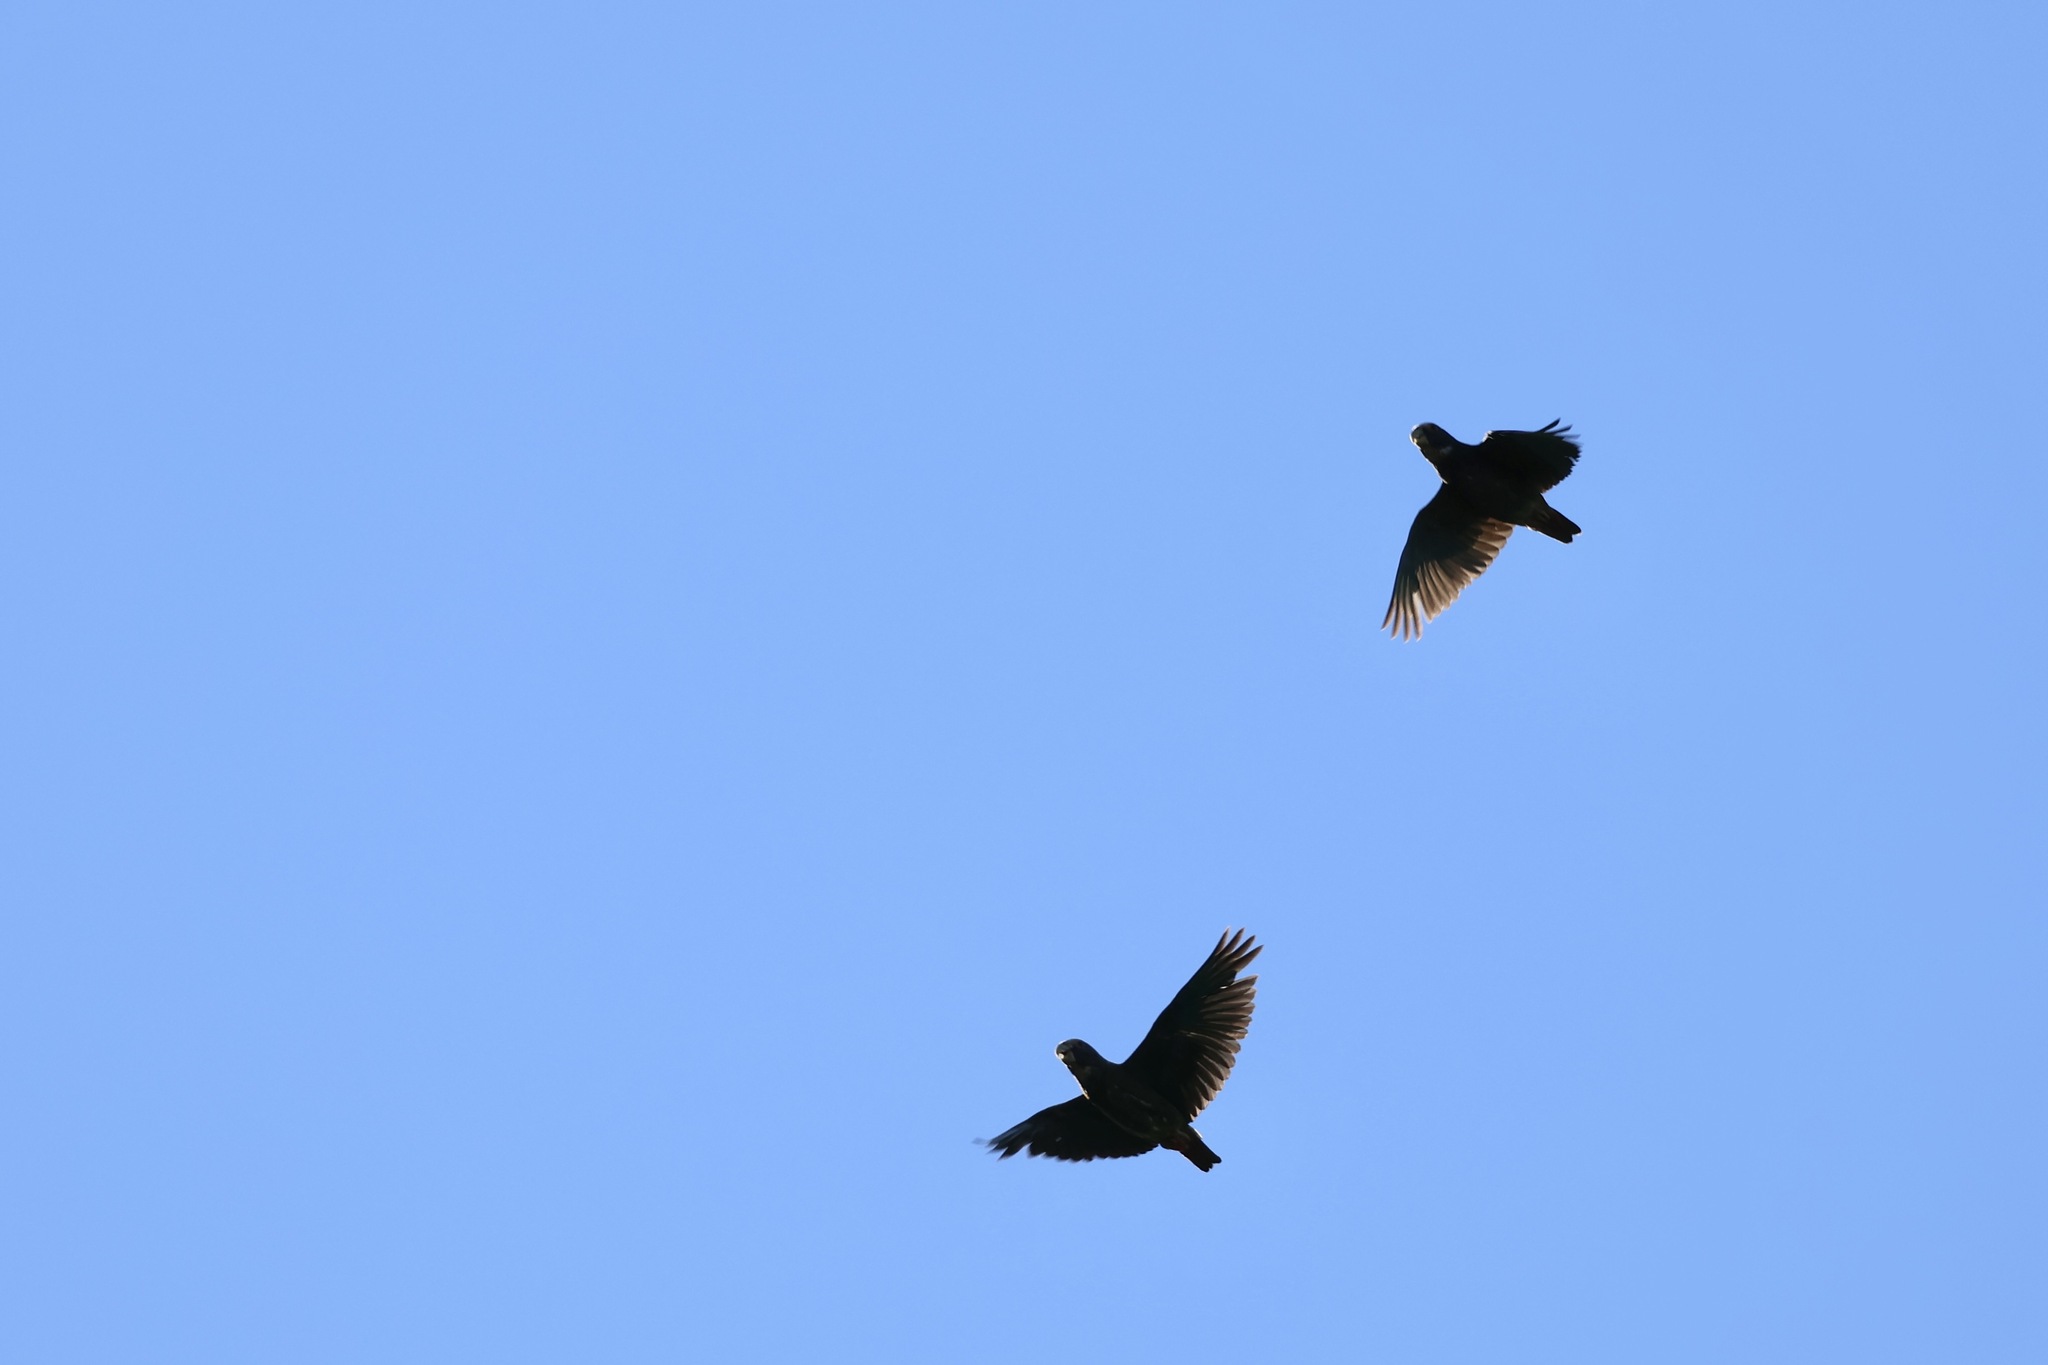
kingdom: Animalia
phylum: Chordata
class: Aves
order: Psittaciformes
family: Psittacidae
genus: Pionus
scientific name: Pionus senilis
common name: White-crowned parrot
